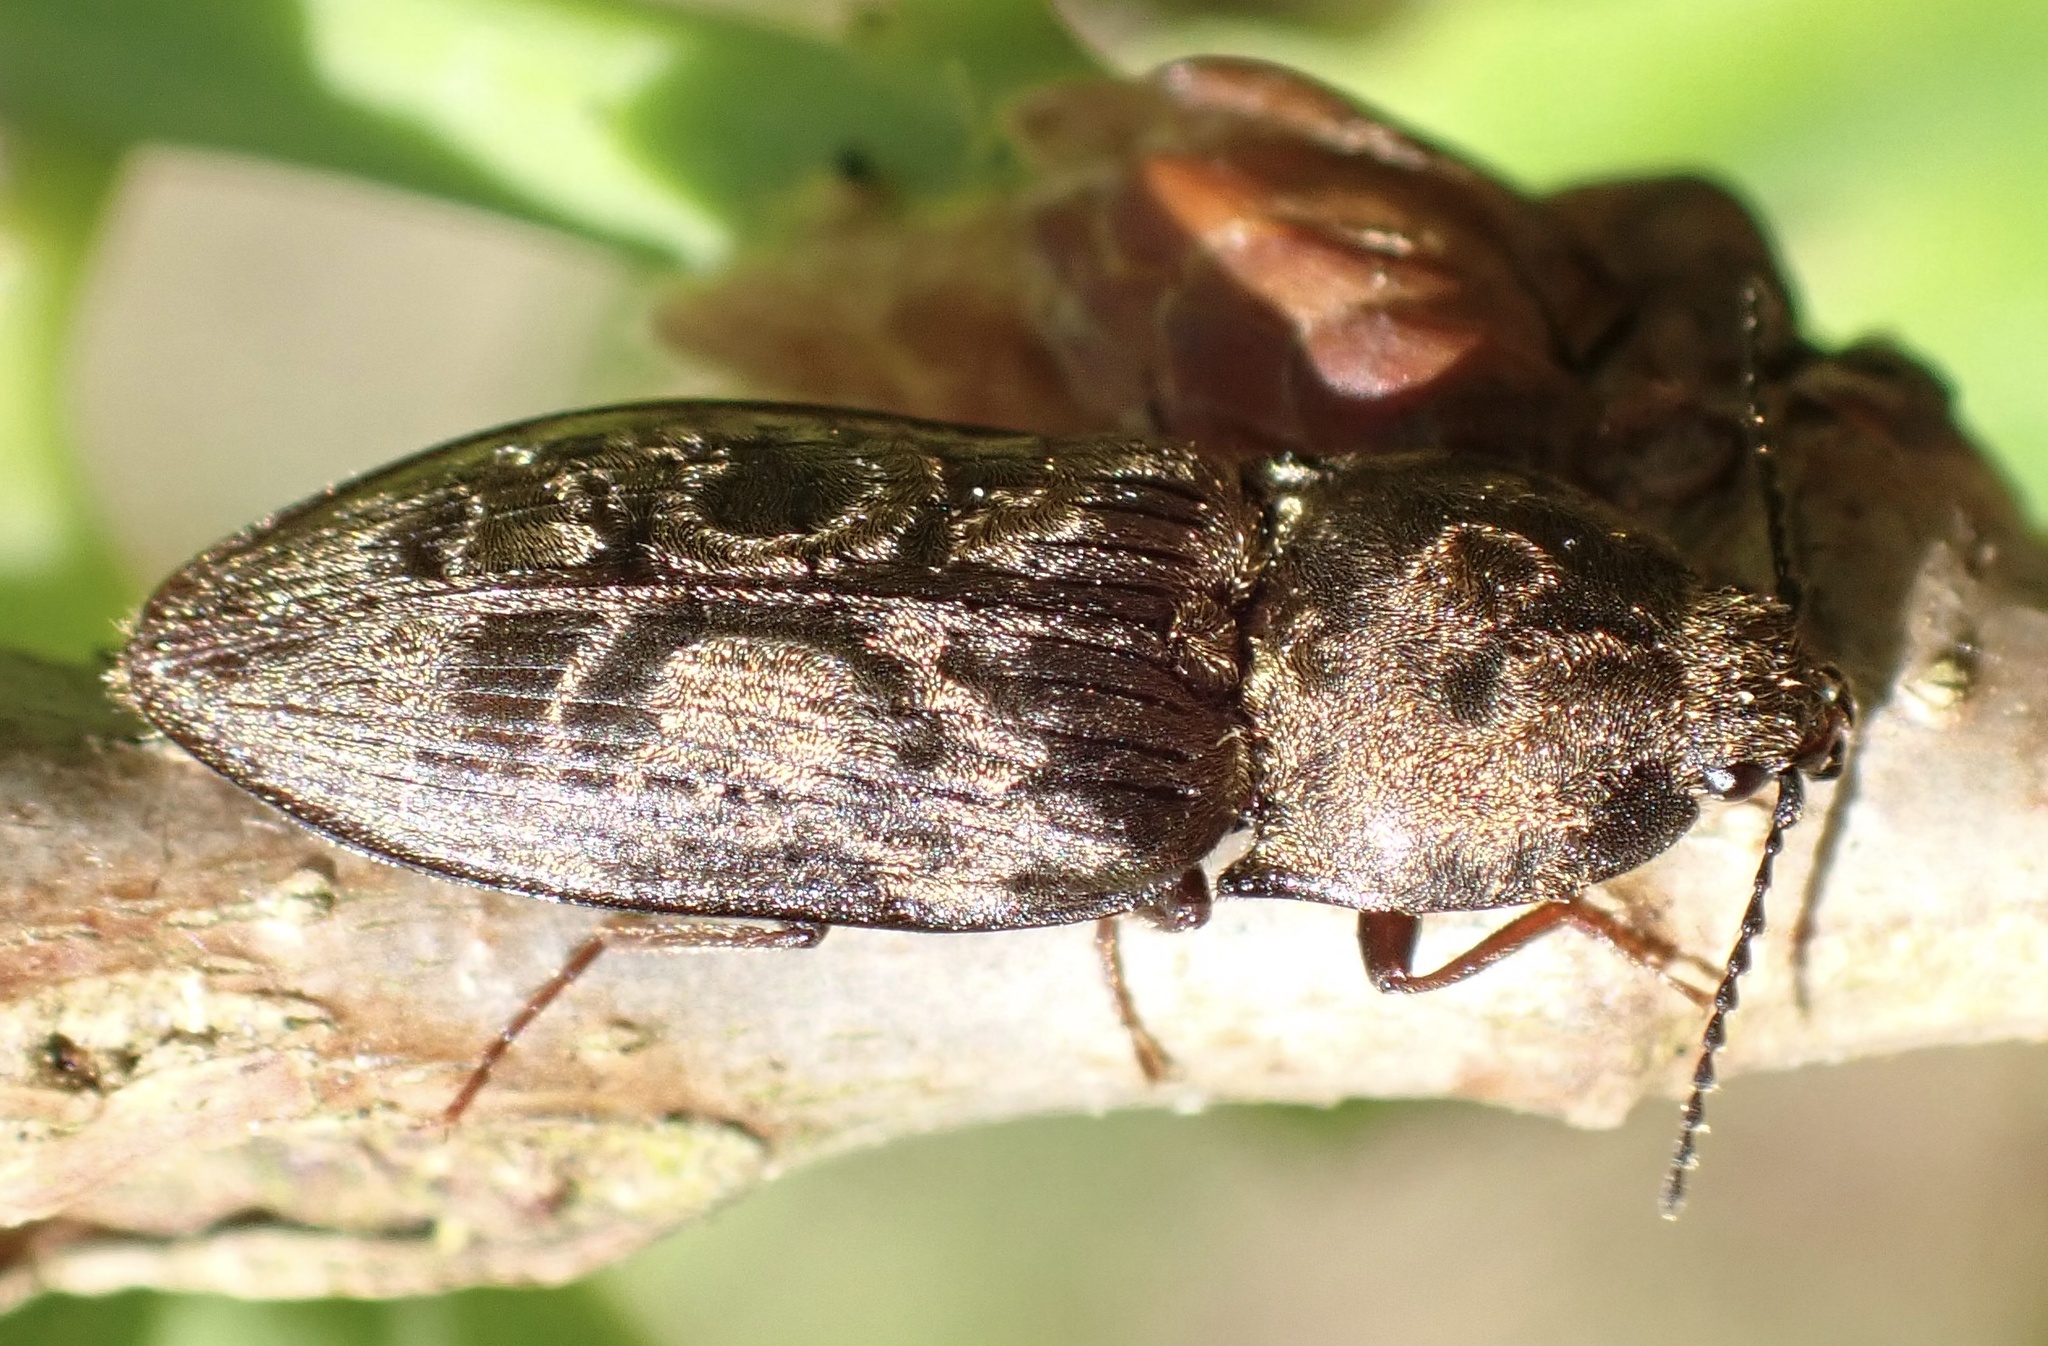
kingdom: Animalia
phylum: Arthropoda
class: Insecta
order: Coleoptera
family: Elateridae
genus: Prosternon
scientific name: Prosternon tessellatum
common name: Chequered click beetle
